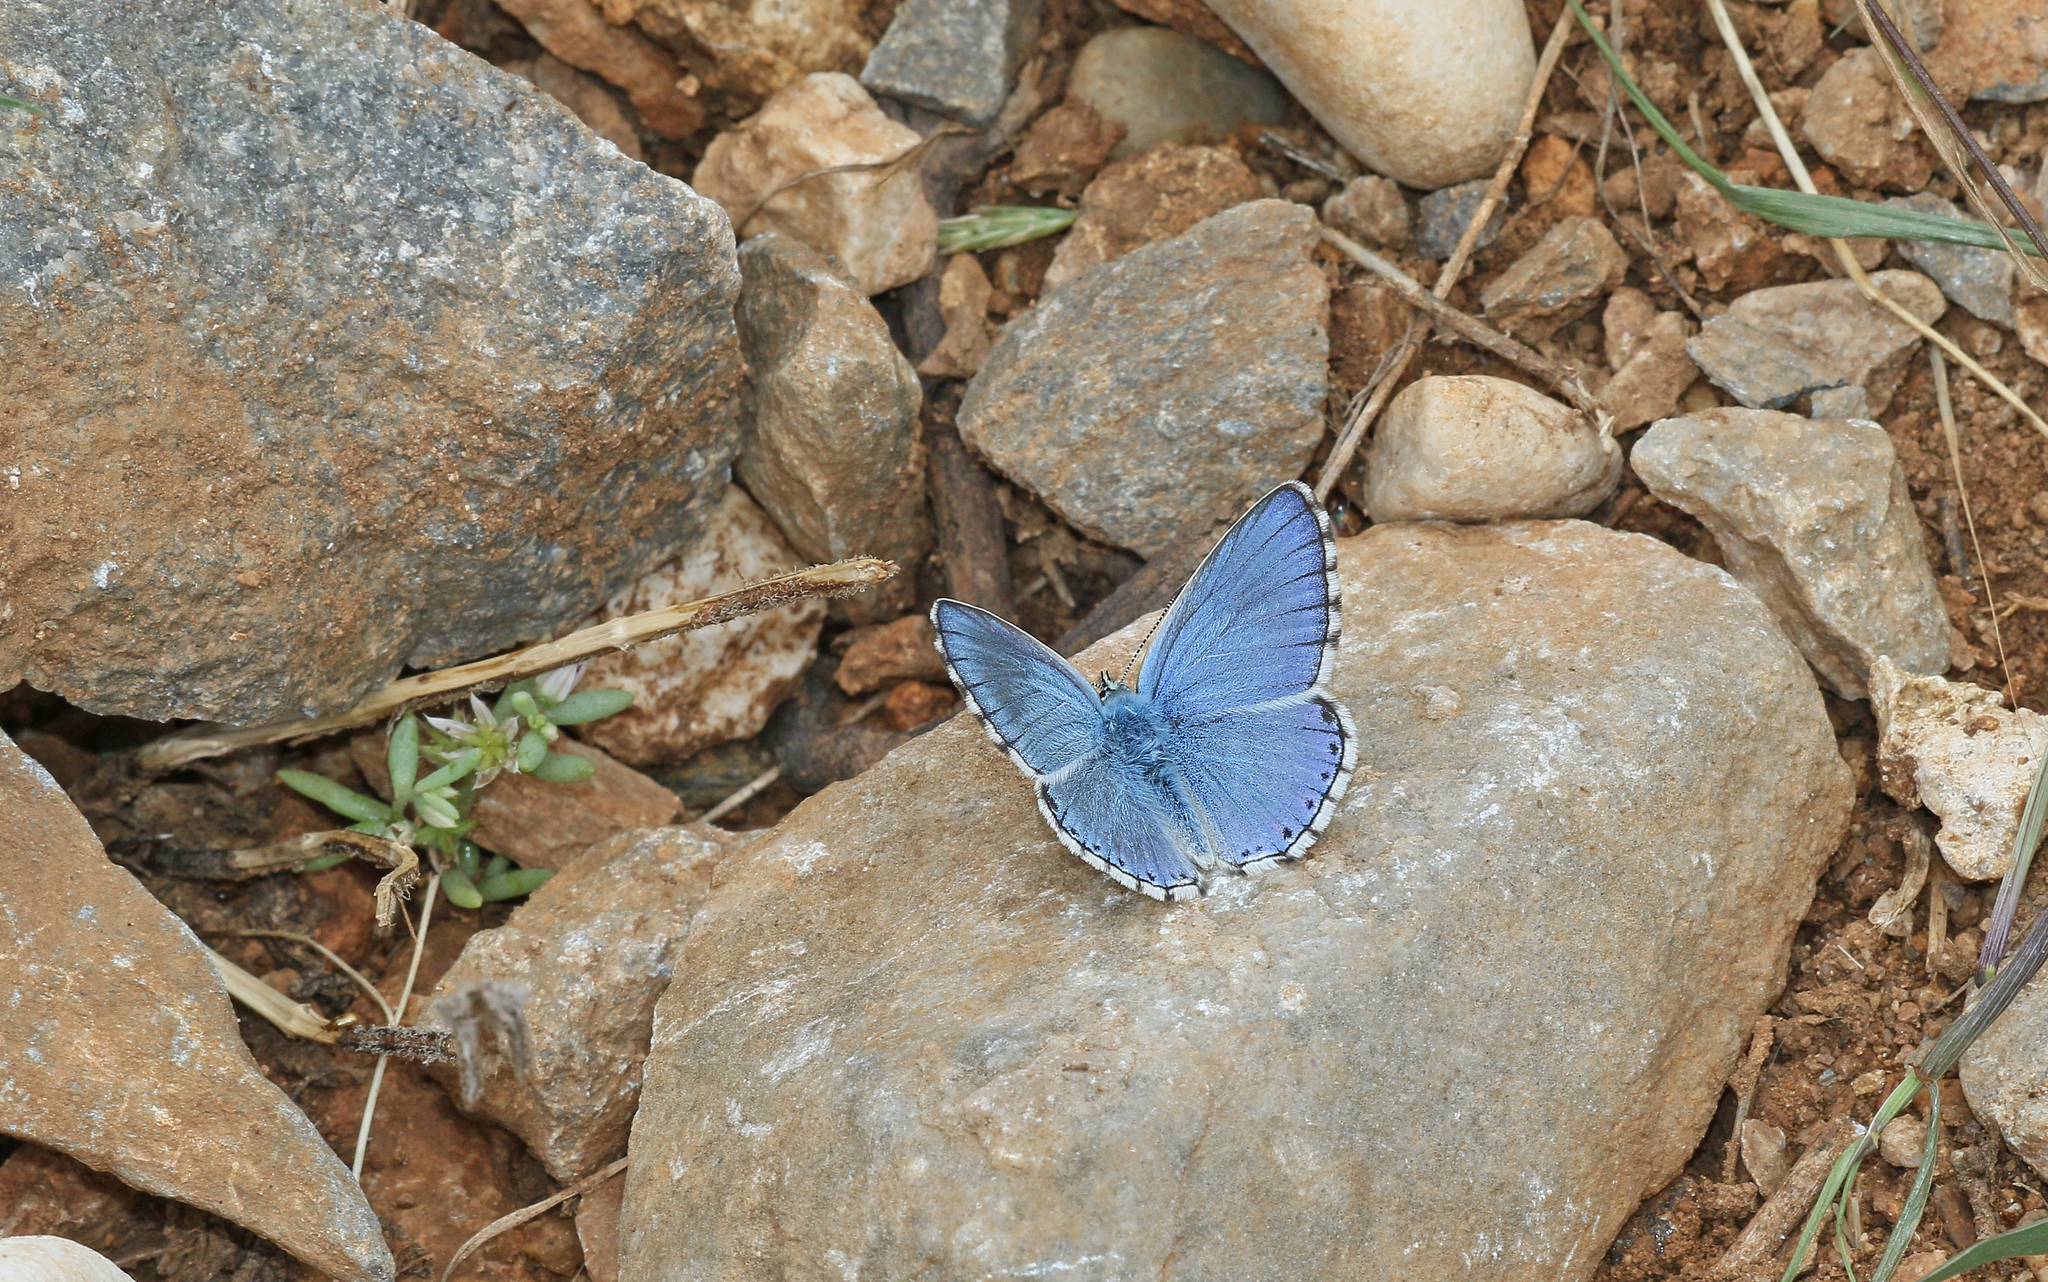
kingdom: Animalia
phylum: Arthropoda
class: Insecta
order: Lepidoptera
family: Lycaenidae
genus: Lysandra
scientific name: Lysandra bellargus
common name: Adonis blue
